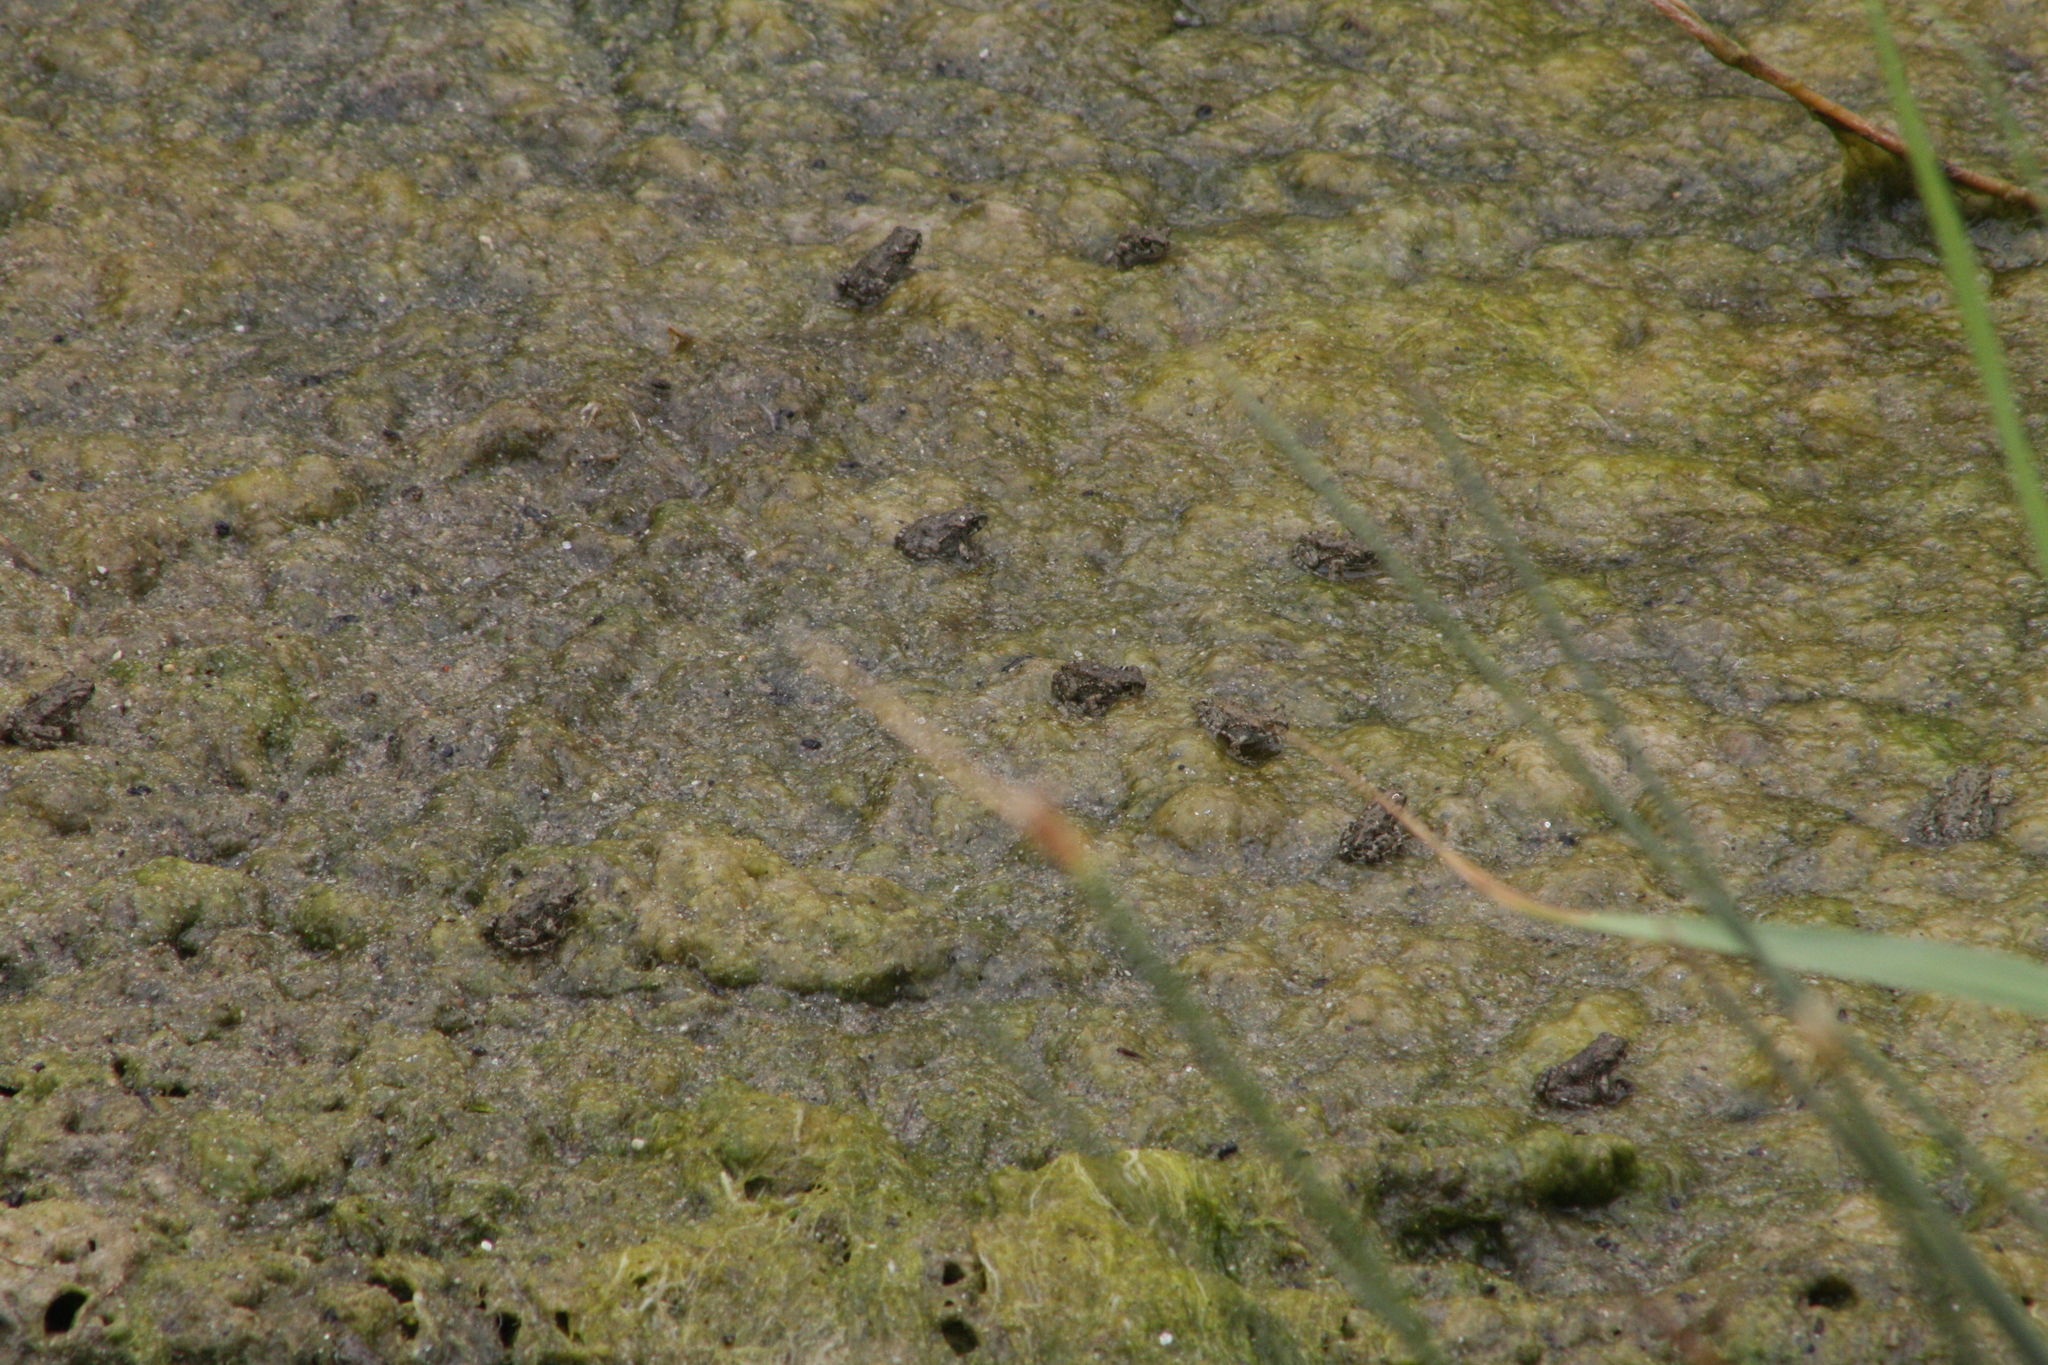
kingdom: Animalia
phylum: Chordata
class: Amphibia
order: Anura
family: Bufonidae
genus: Bufotes
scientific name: Bufotes viridis
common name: European green toad
